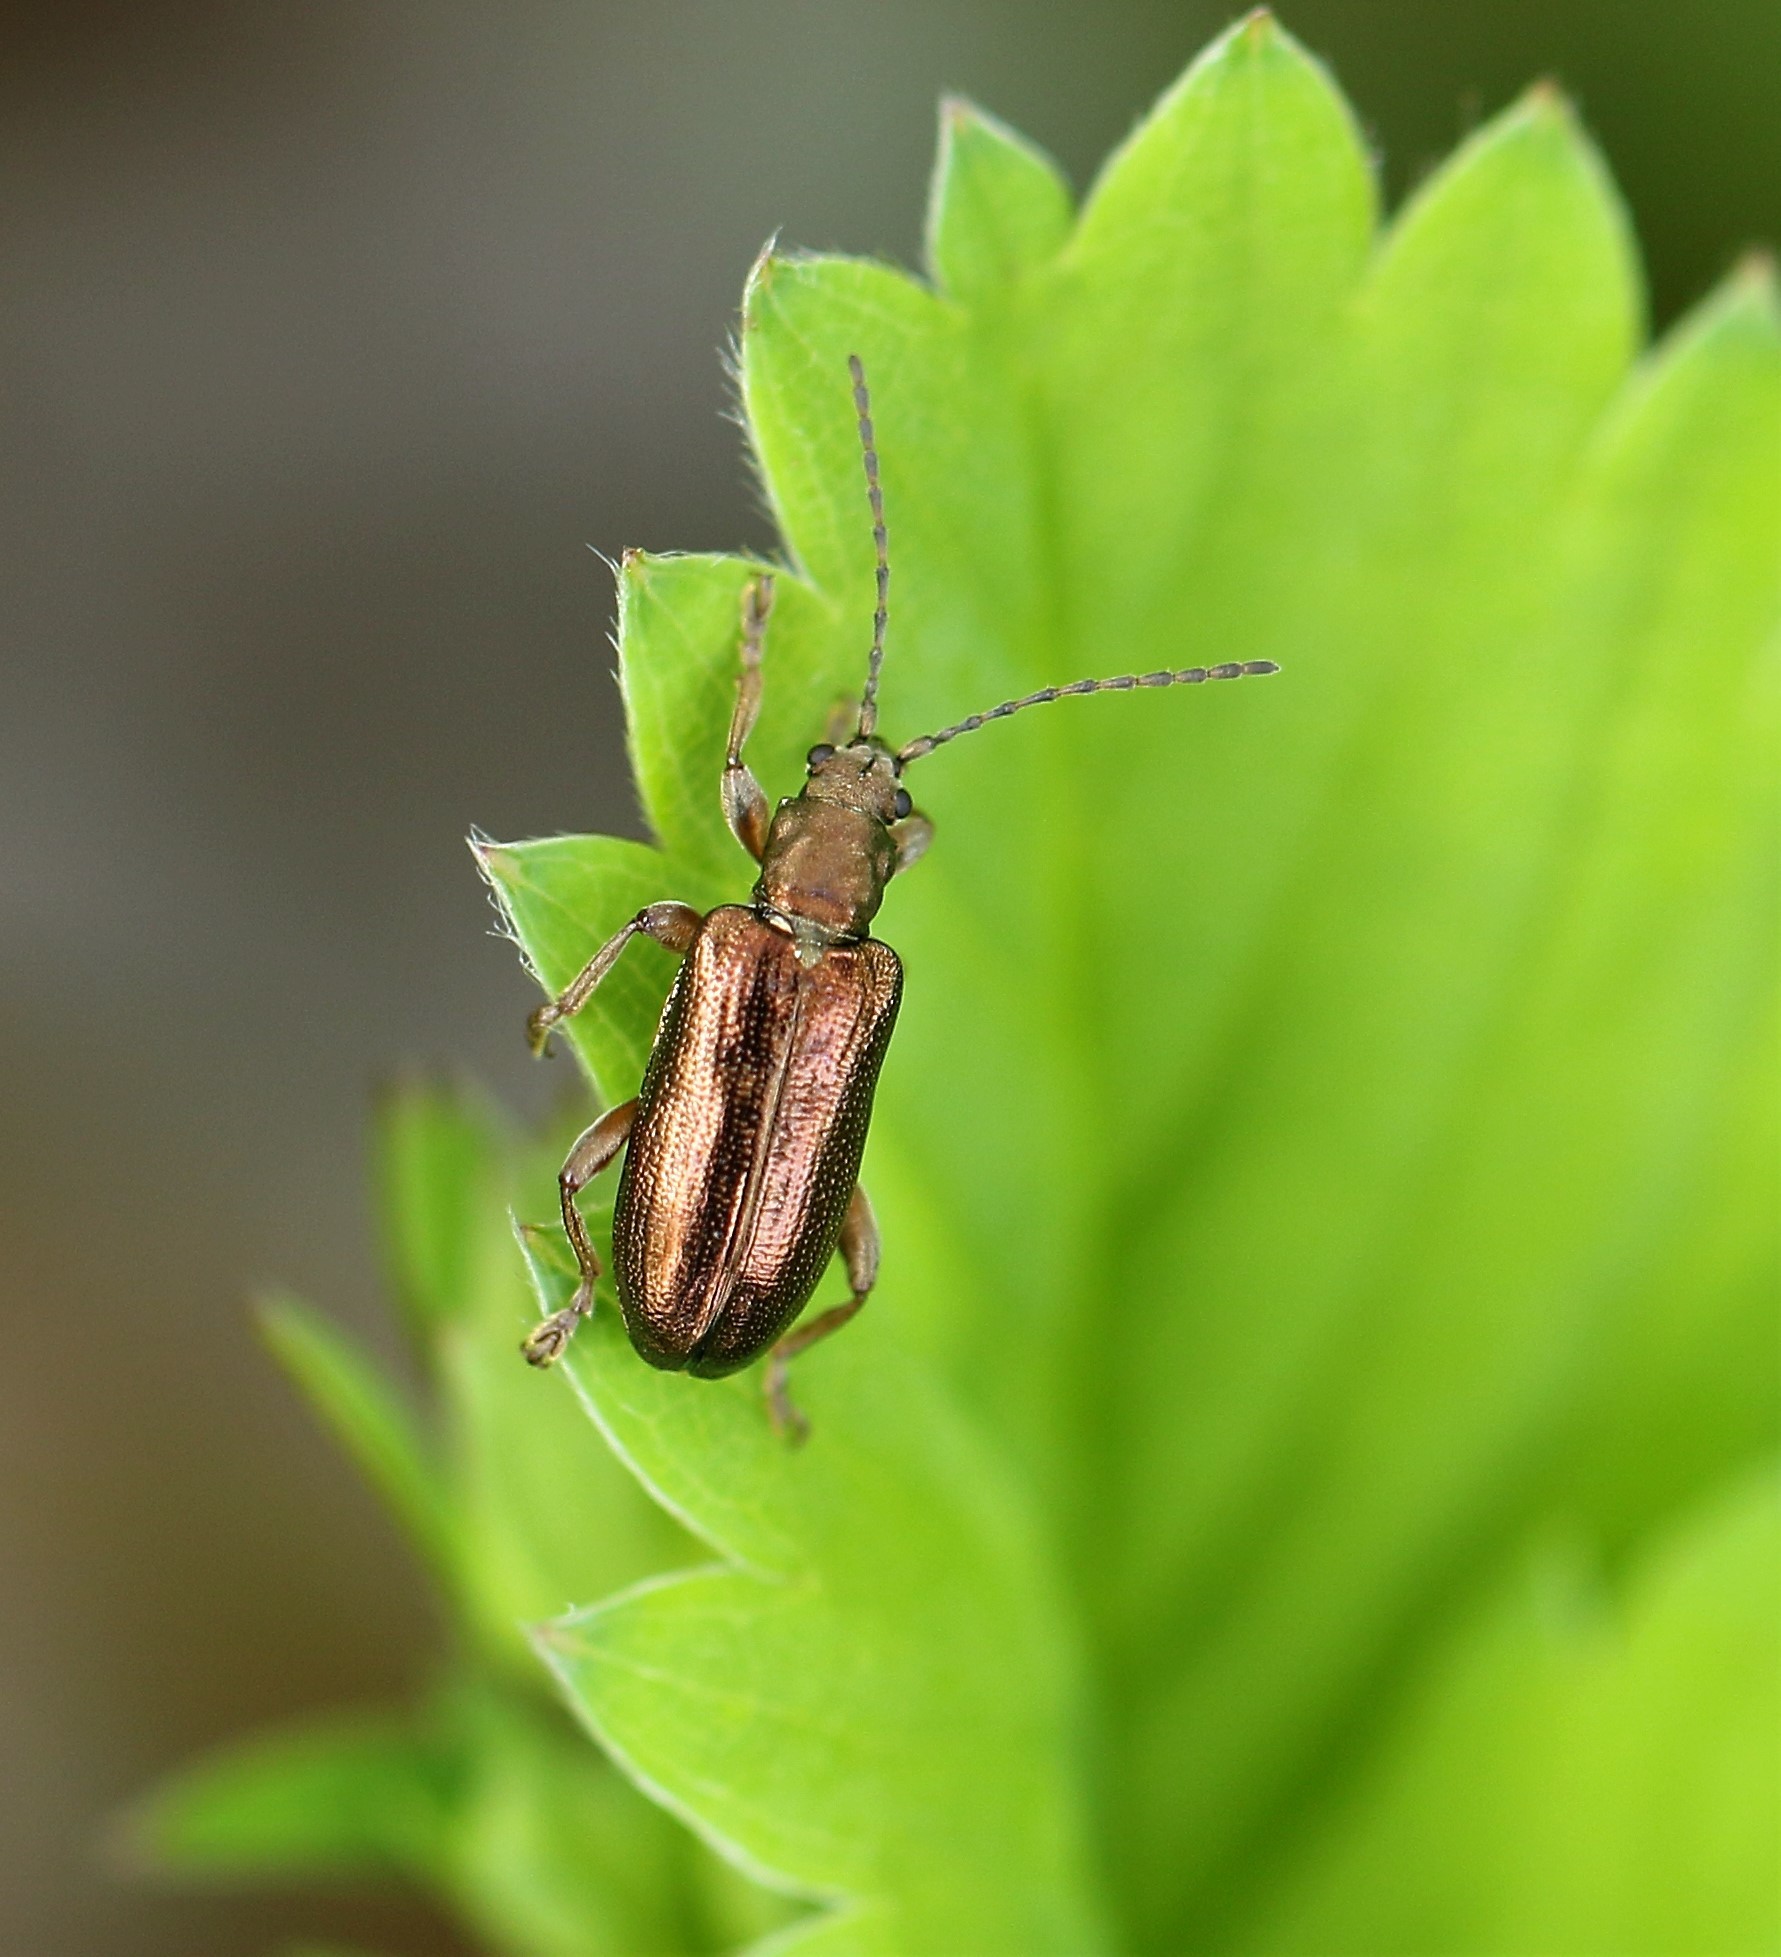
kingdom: Animalia
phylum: Arthropoda
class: Insecta
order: Coleoptera
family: Chrysomelidae
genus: Plateumaris
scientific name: Plateumaris germari
